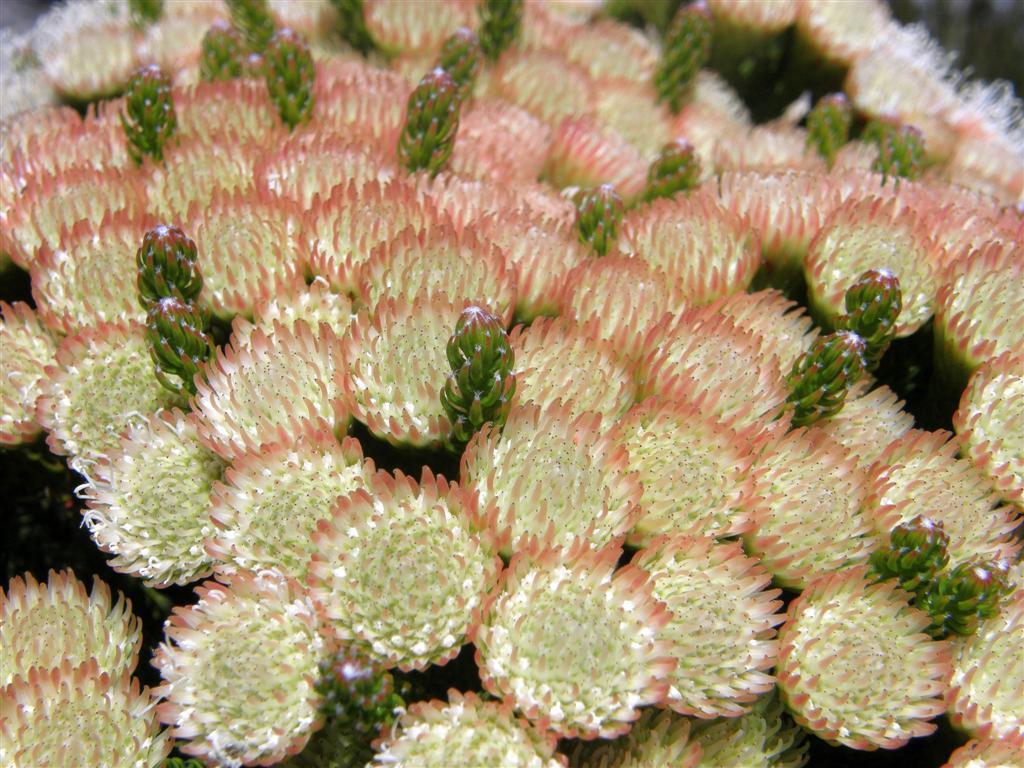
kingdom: Plantae
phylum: Tracheophyta
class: Magnoliopsida
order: Bruniales
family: Bruniaceae
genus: Brunia
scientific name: Brunia latebracteata
